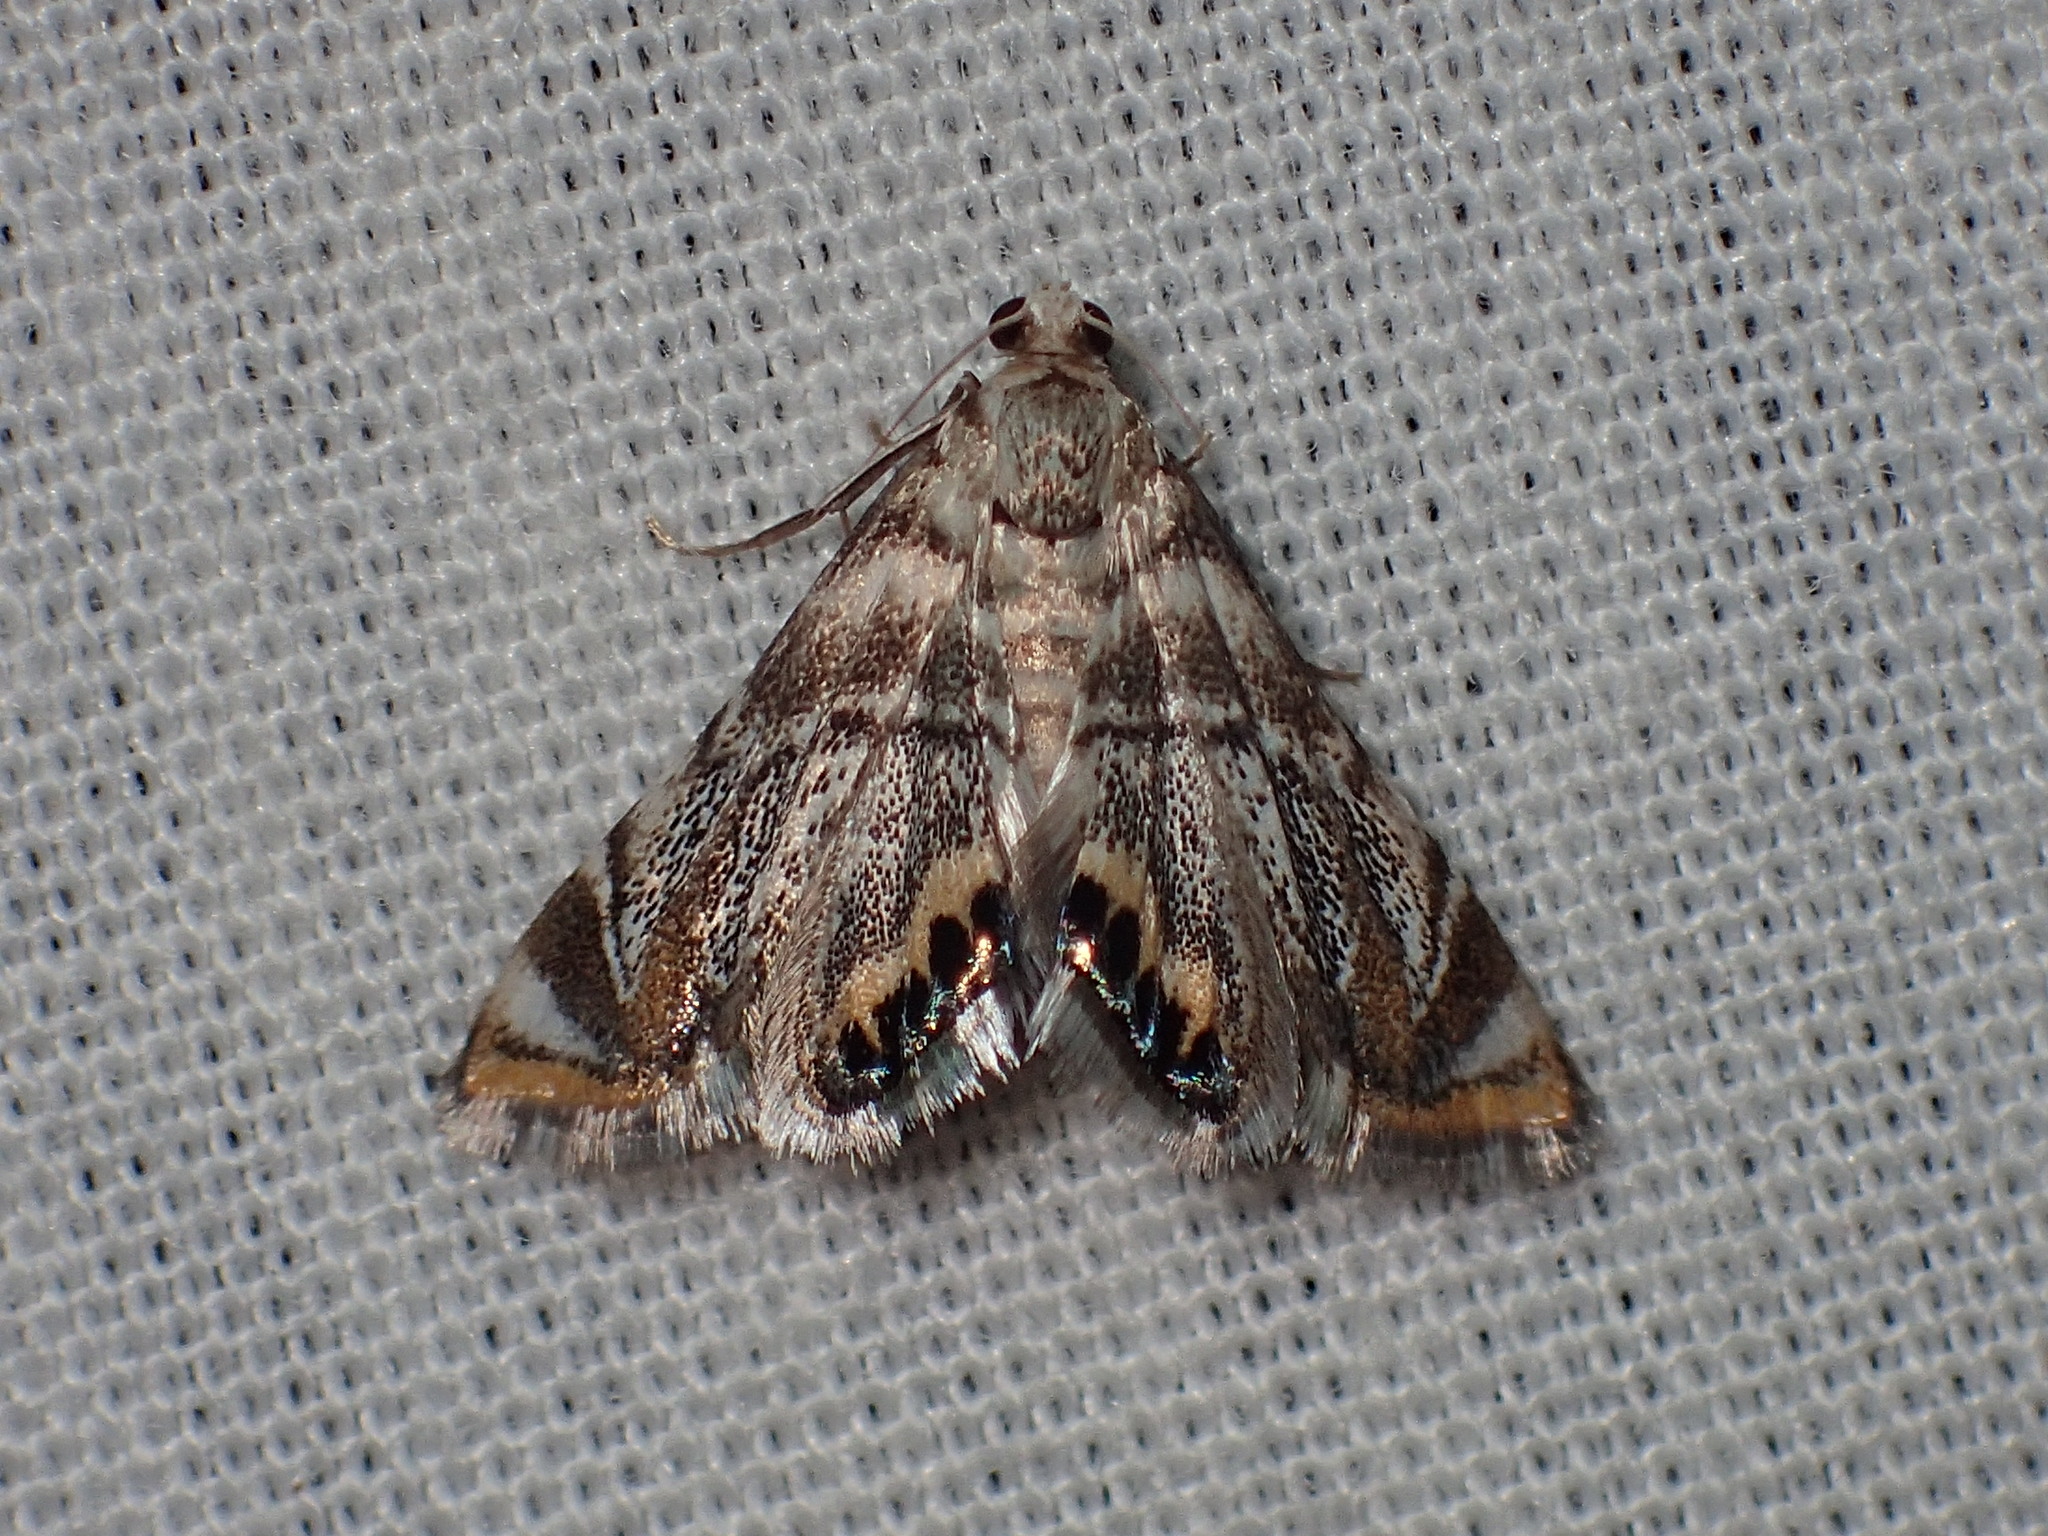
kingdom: Animalia
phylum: Arthropoda
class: Insecta
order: Lepidoptera
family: Crambidae
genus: Eoparargyractis
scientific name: Eoparargyractis irroratalis
